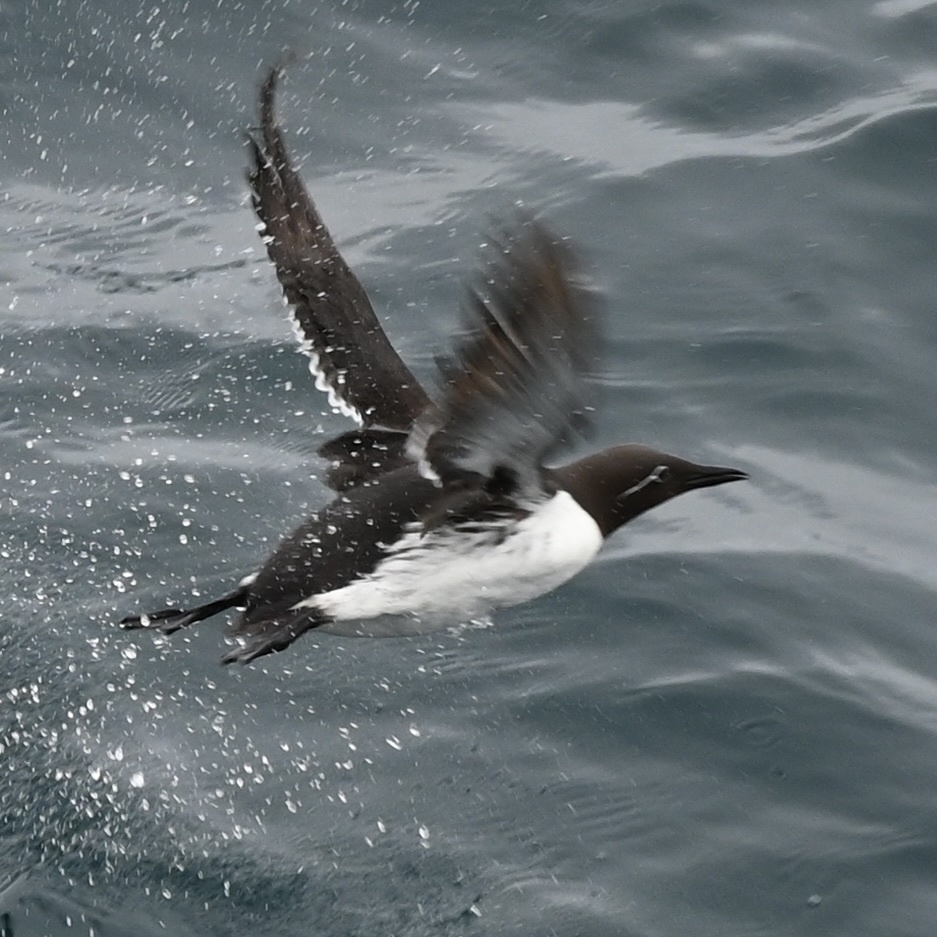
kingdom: Animalia
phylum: Chordata
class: Aves
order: Charadriiformes
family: Alcidae
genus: Uria
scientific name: Uria aalge
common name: Common murre
